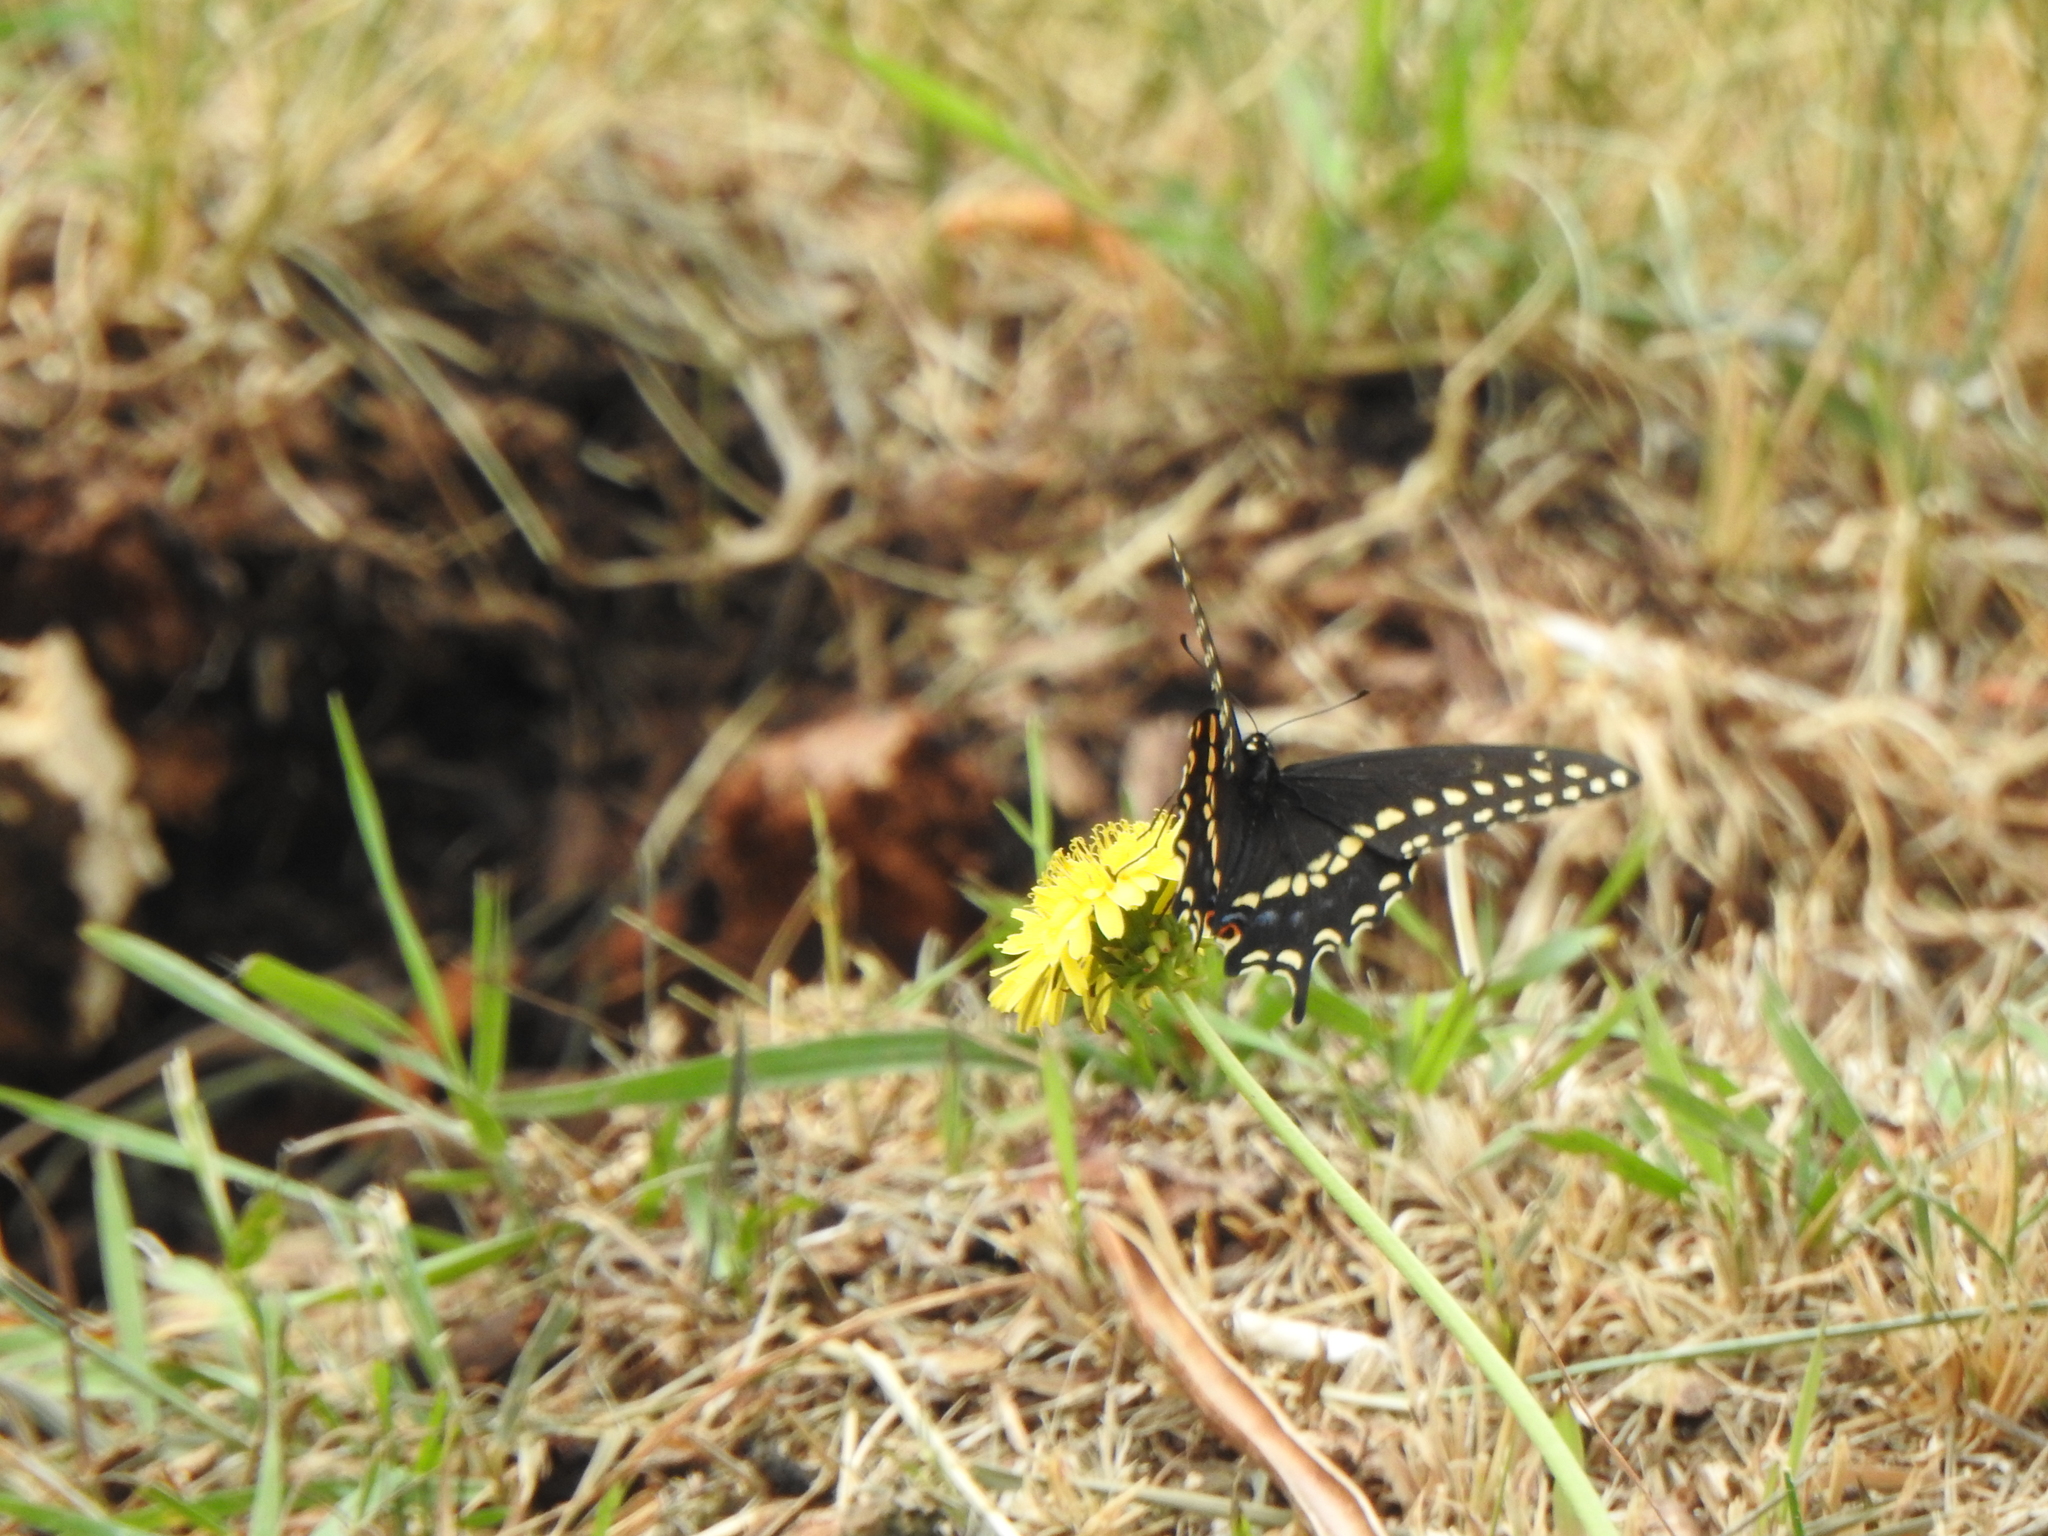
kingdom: Animalia
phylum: Arthropoda
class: Insecta
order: Lepidoptera
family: Papilionidae
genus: Papilio
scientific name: Papilio polyxenes
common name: Black swallowtail
